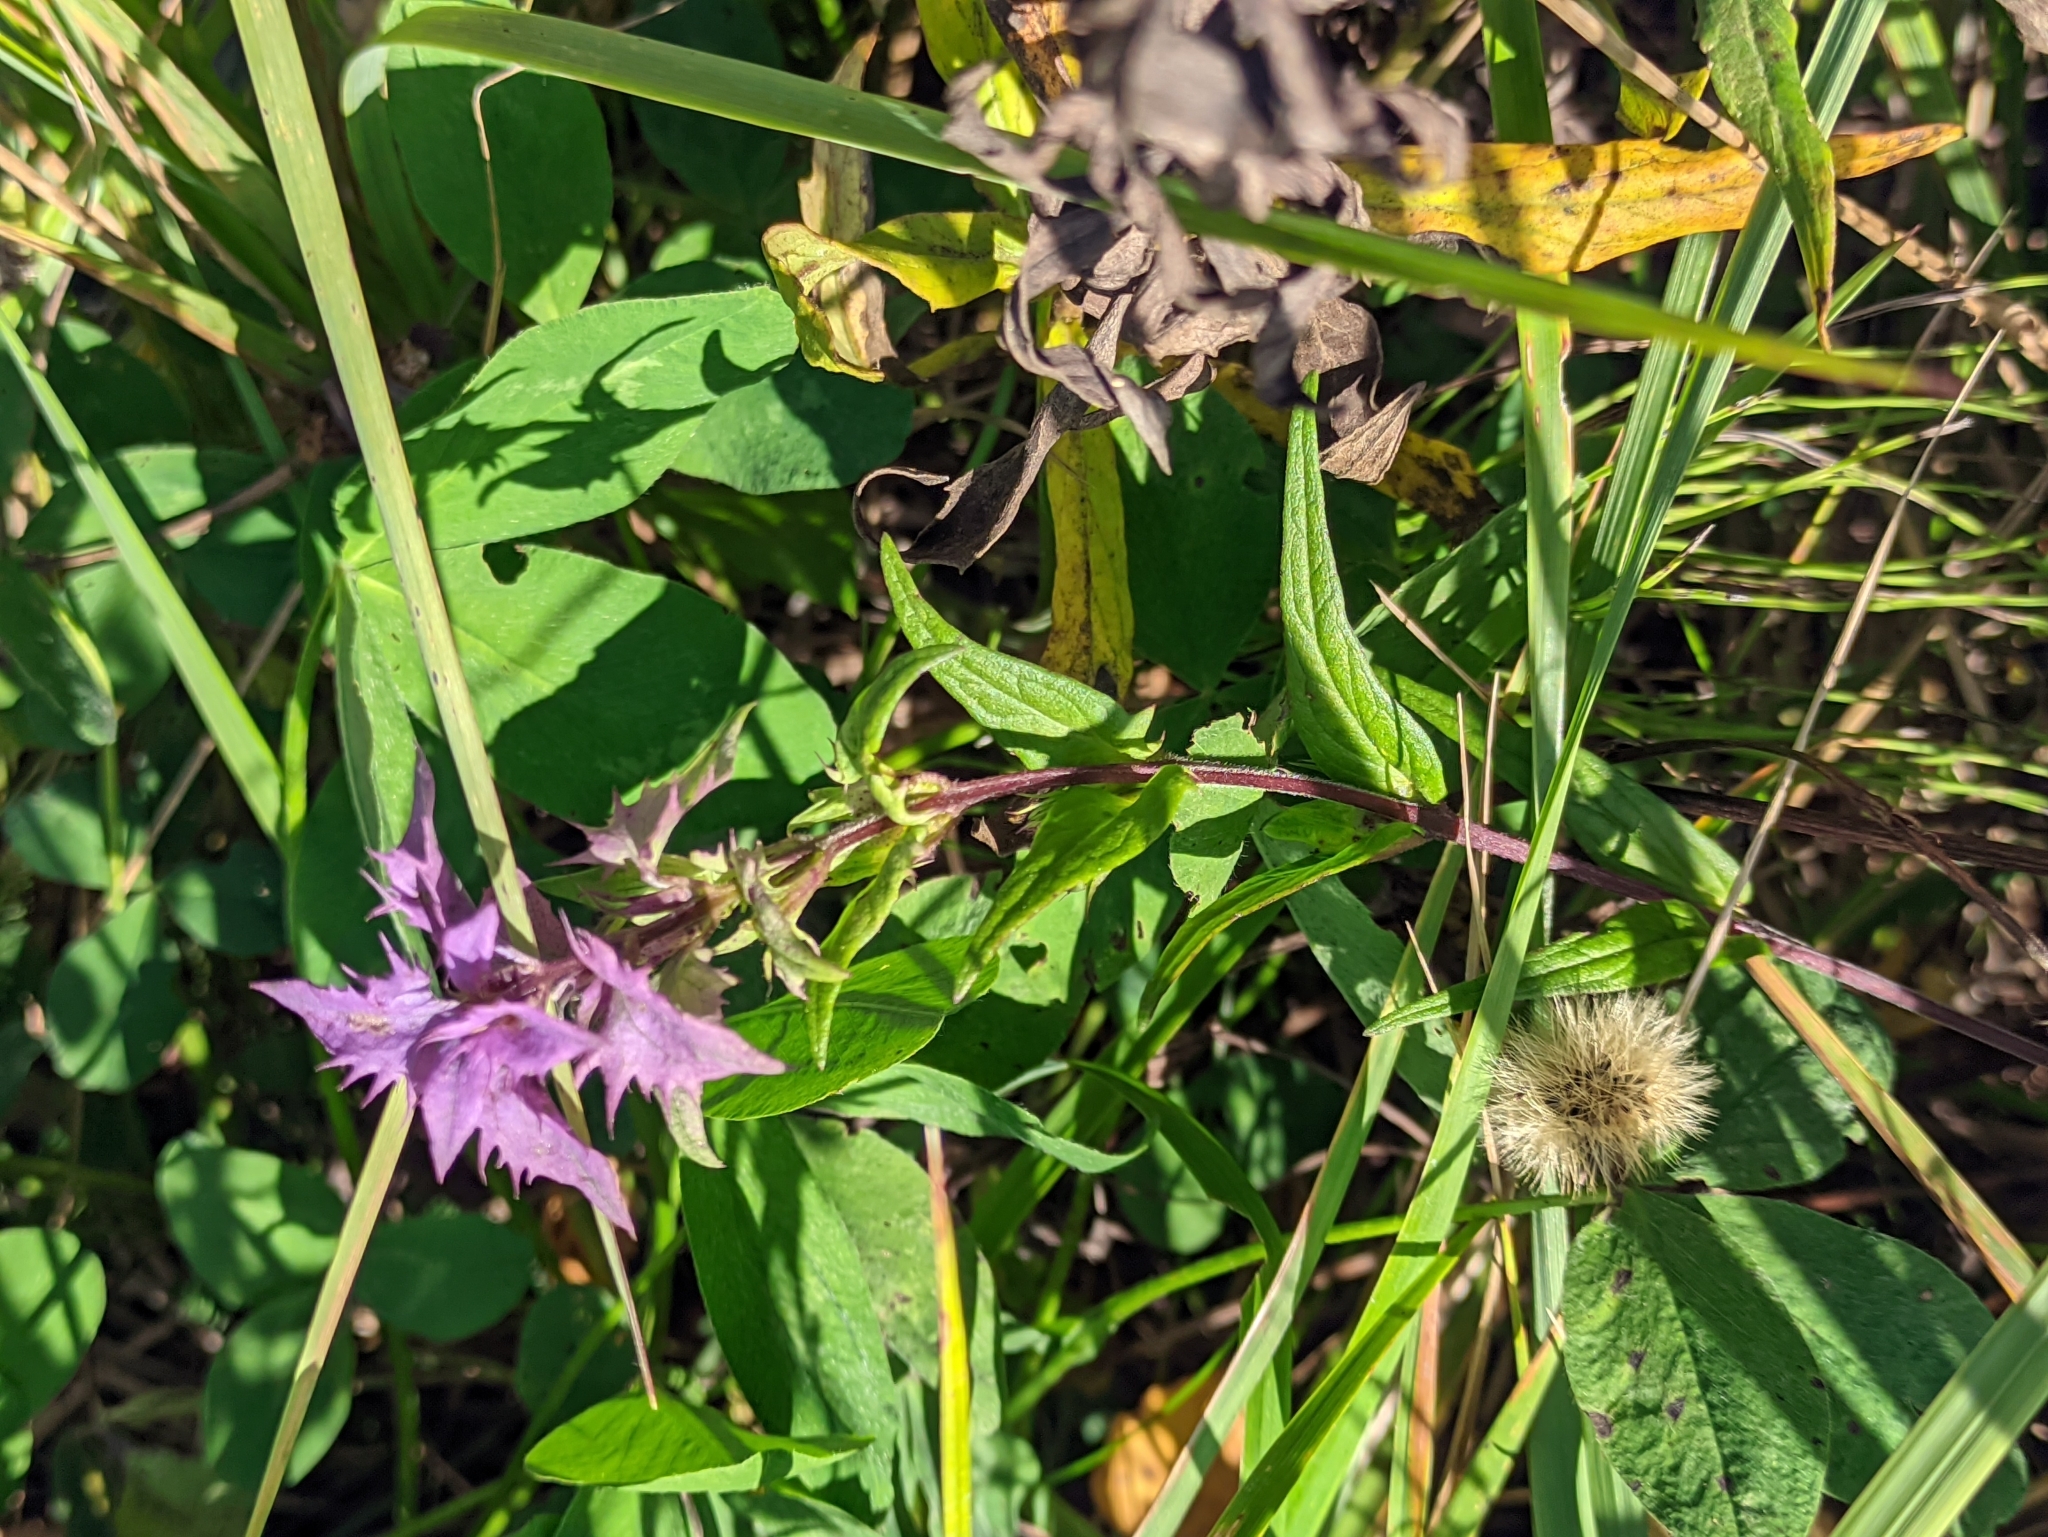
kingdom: Plantae
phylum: Tracheophyta
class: Magnoliopsida
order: Lamiales
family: Orobanchaceae
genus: Melampyrum
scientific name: Melampyrum nemorosum
